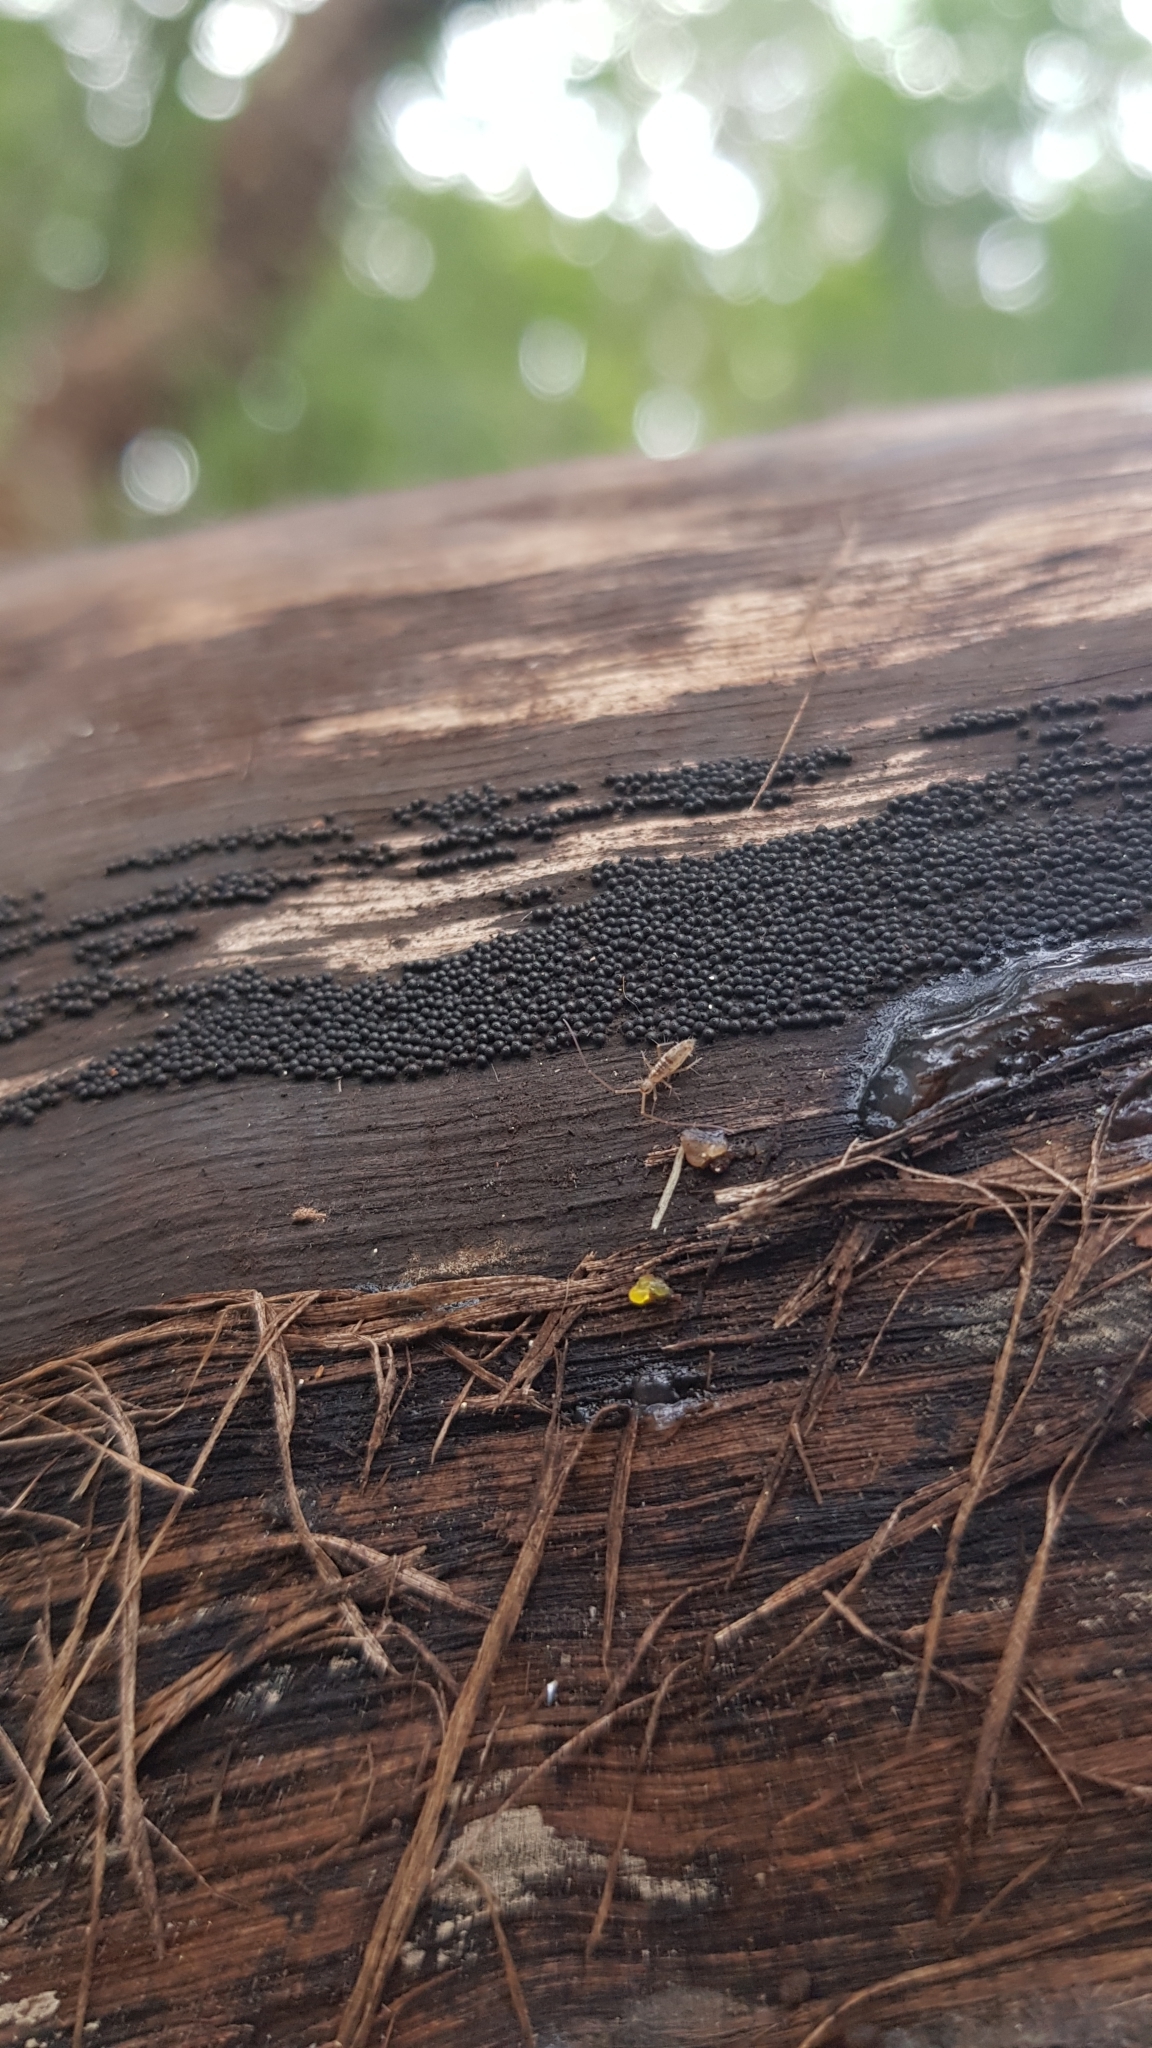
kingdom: Fungi
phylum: Ascomycota
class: Sordariomycetes
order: Xylariales
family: Hypoxylaceae
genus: Annulohypoxylon
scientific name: Annulohypoxylon bovei
